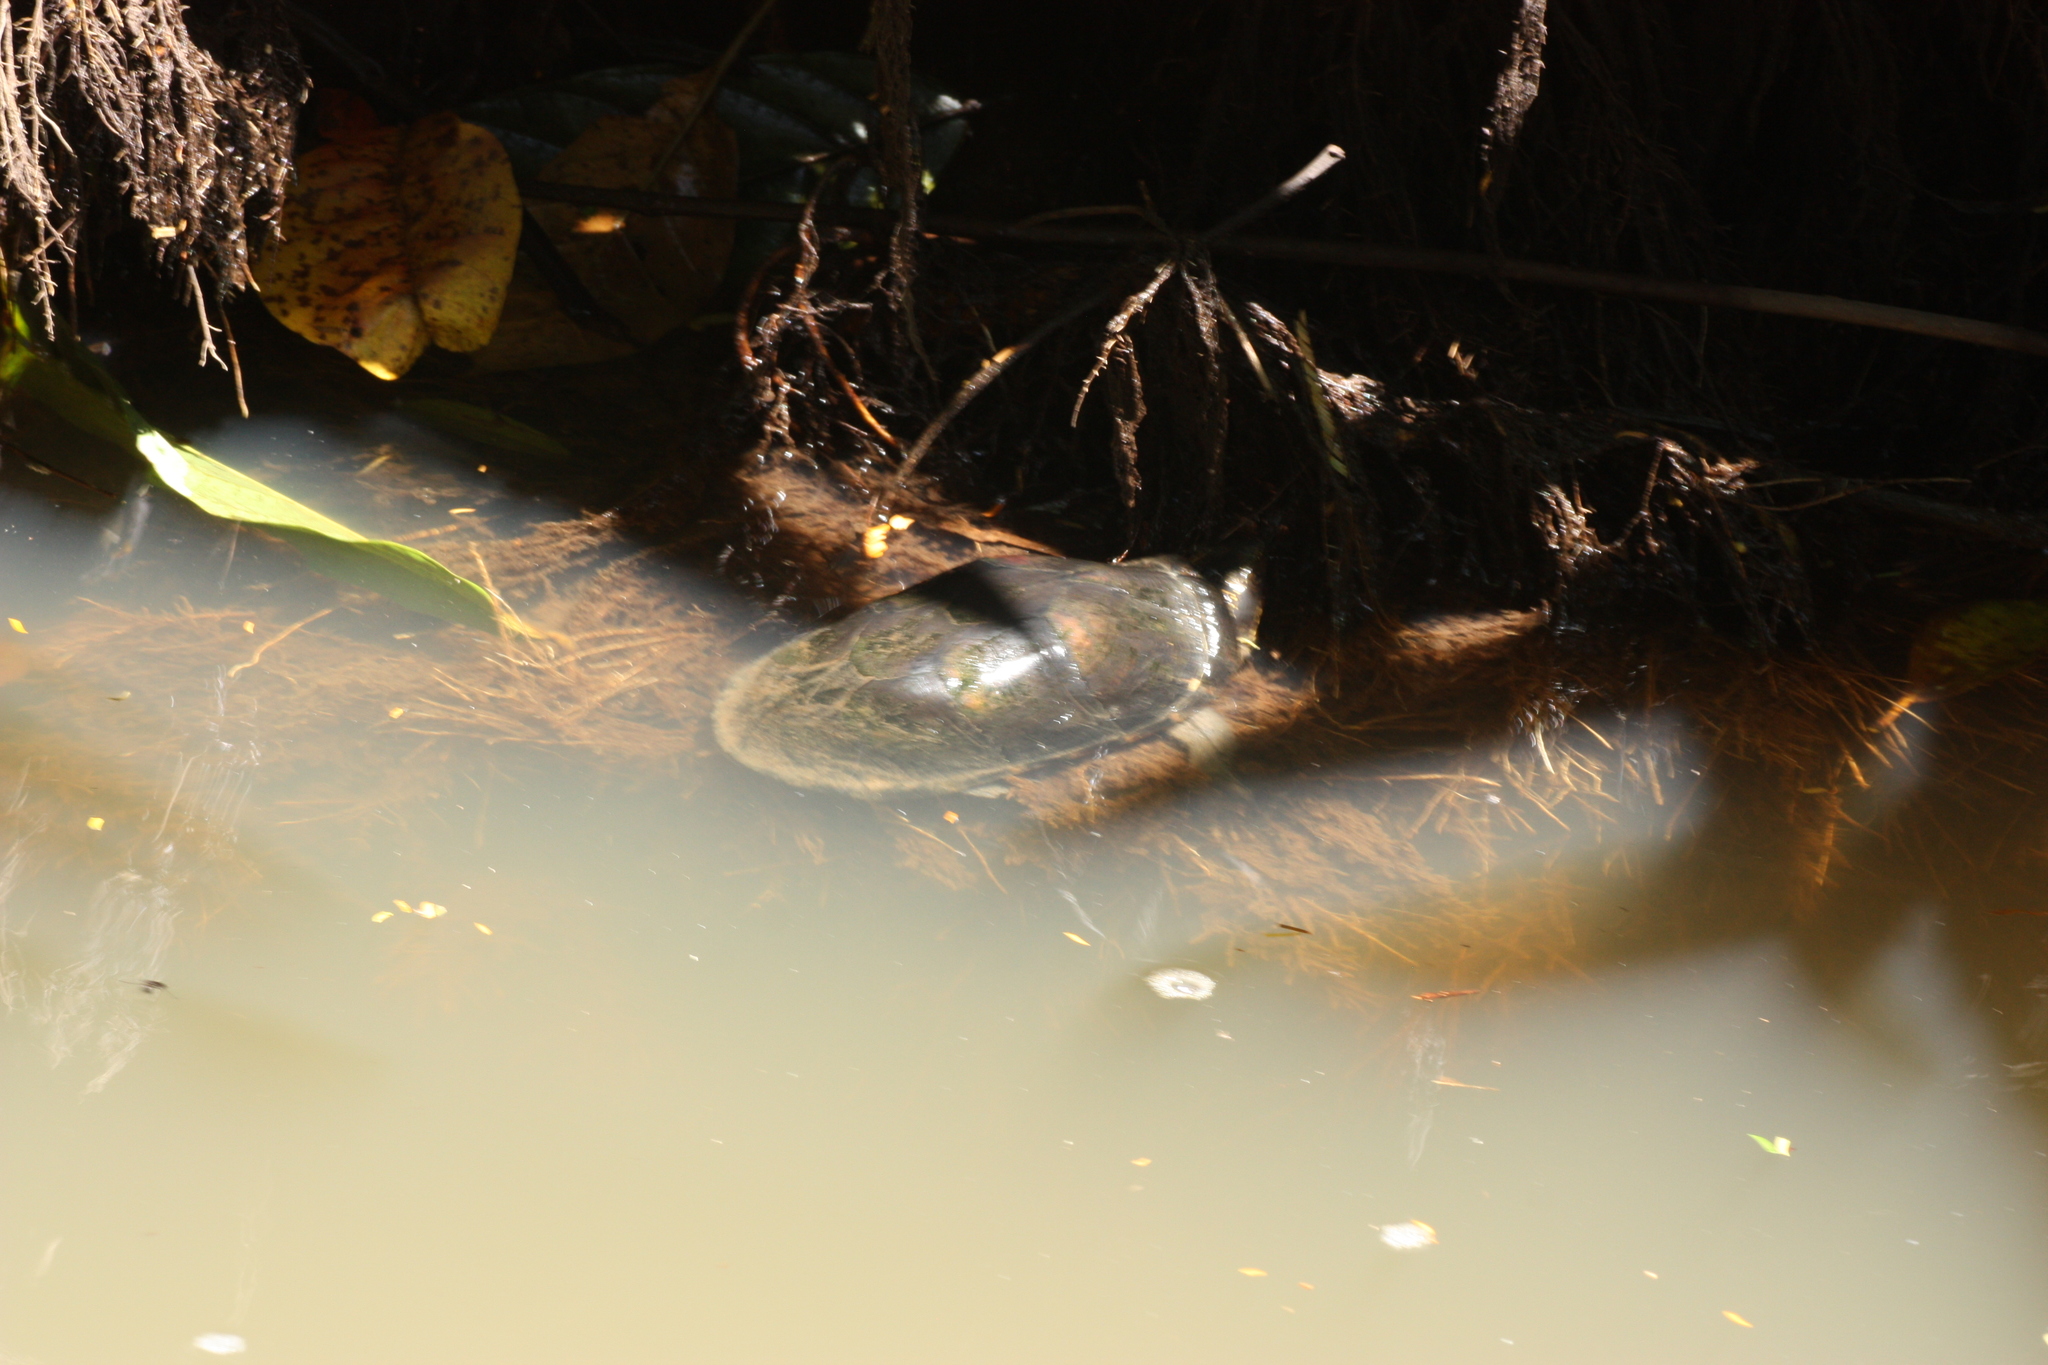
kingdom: Animalia
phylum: Chordata
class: Testudines
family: Kinosternidae
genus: Kinosternon
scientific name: Kinosternon leucostomum
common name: White-lipped mud turtle
